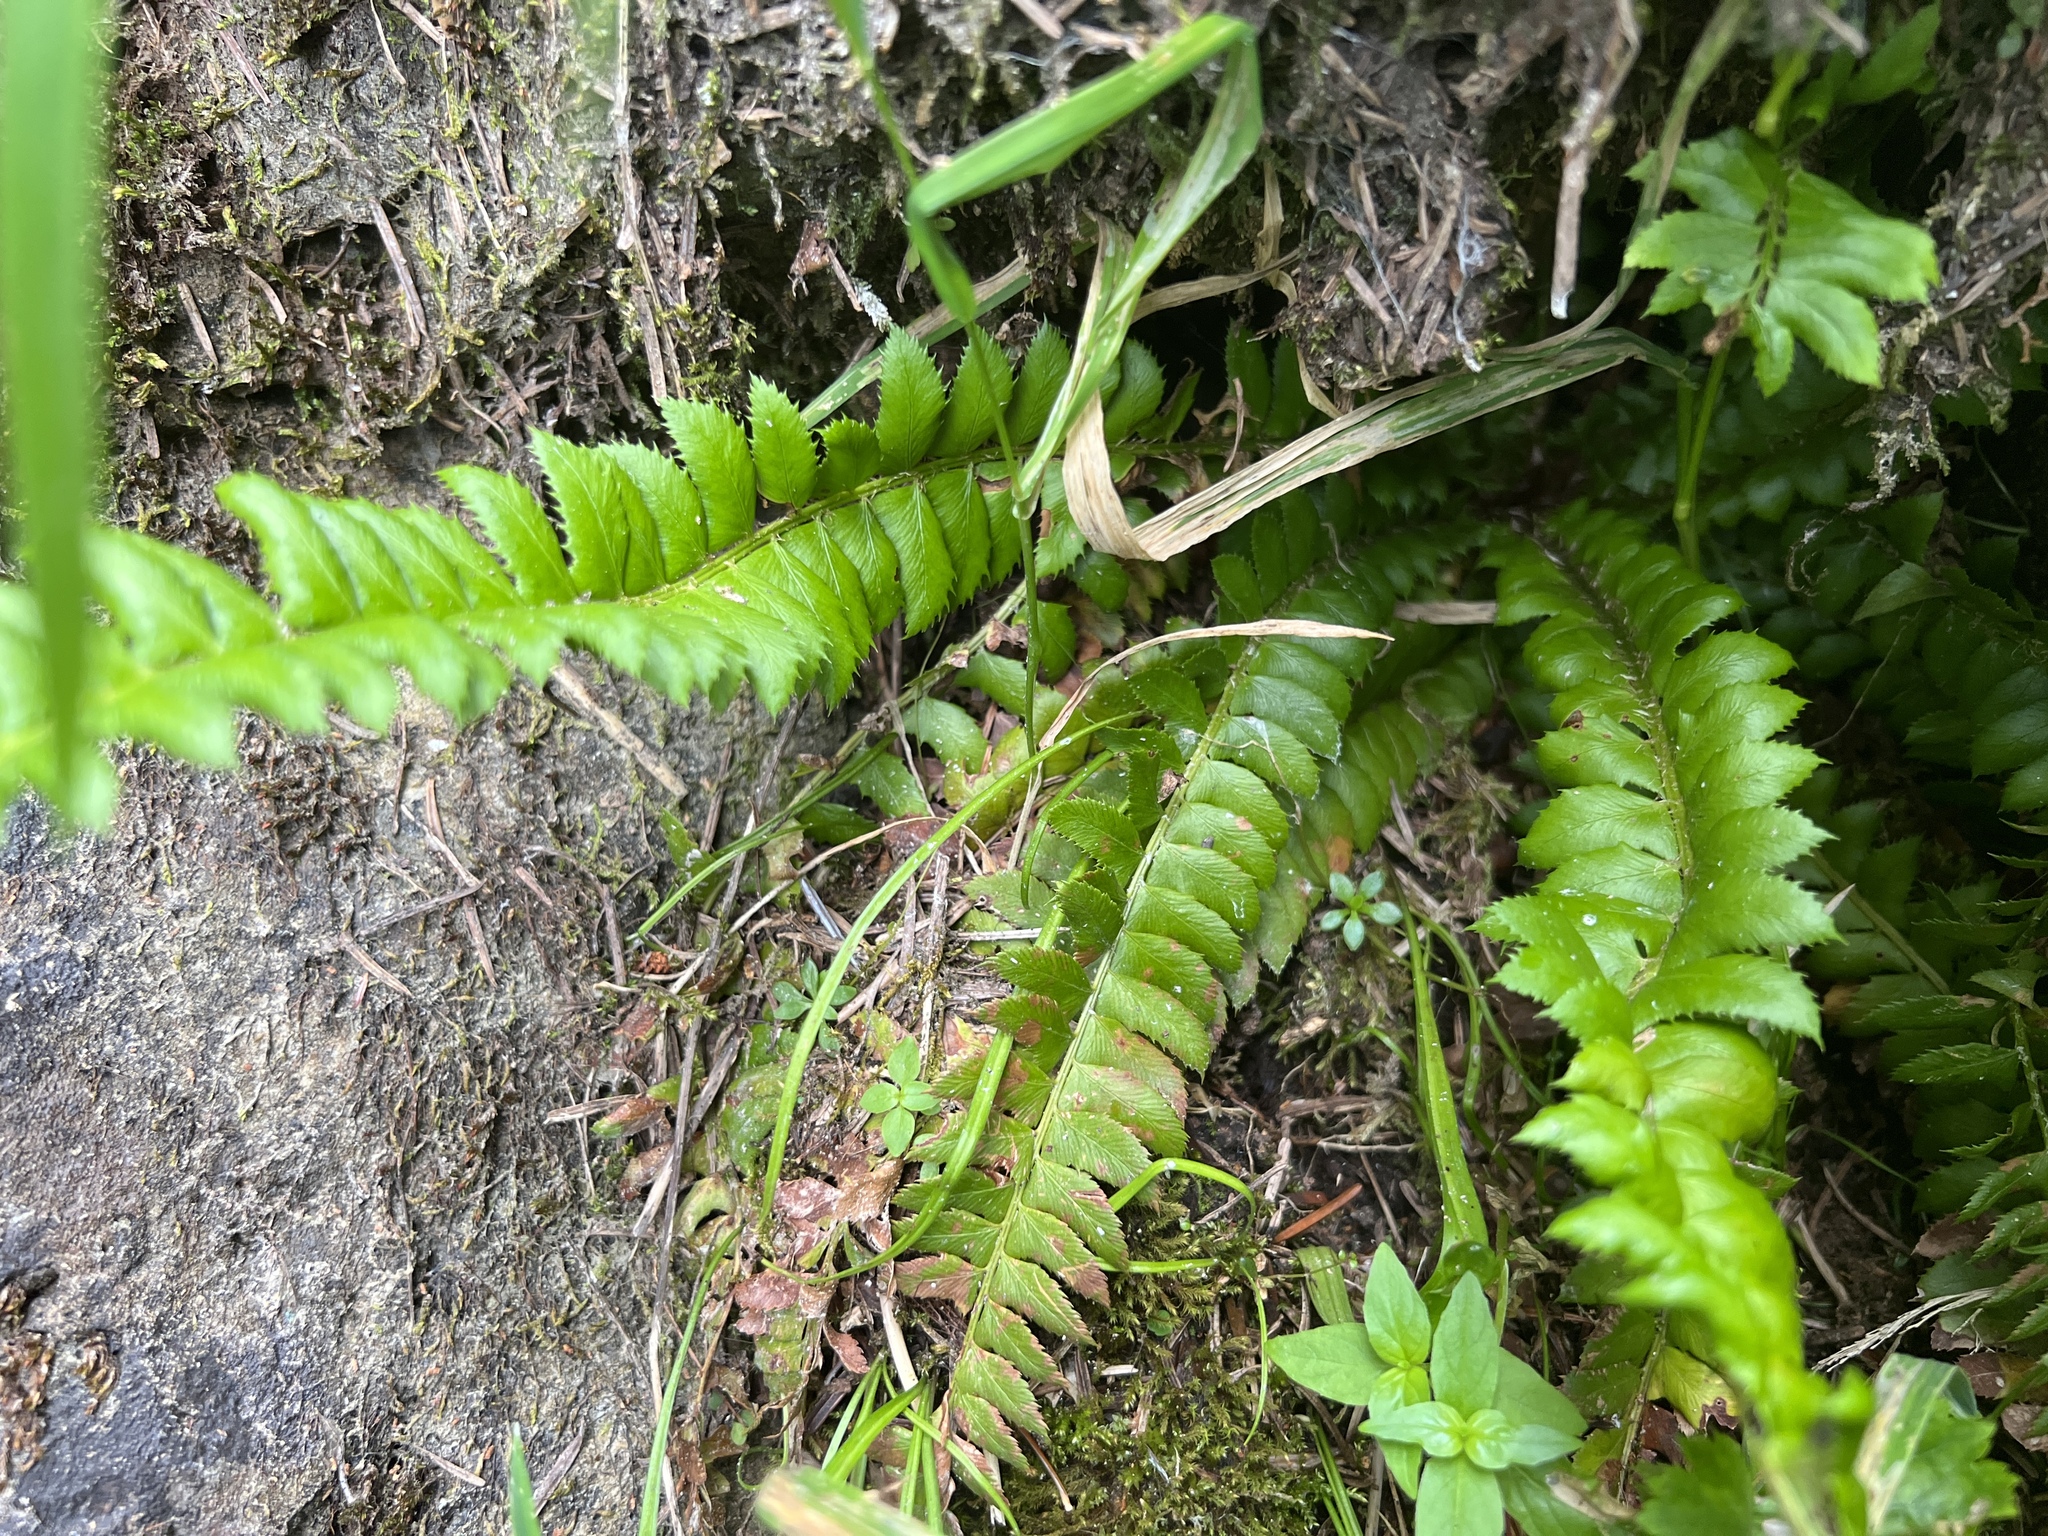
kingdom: Plantae
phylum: Tracheophyta
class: Polypodiopsida
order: Polypodiales
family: Dryopteridaceae
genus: Polystichum
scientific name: Polystichum lonchitis
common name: Holly fern
